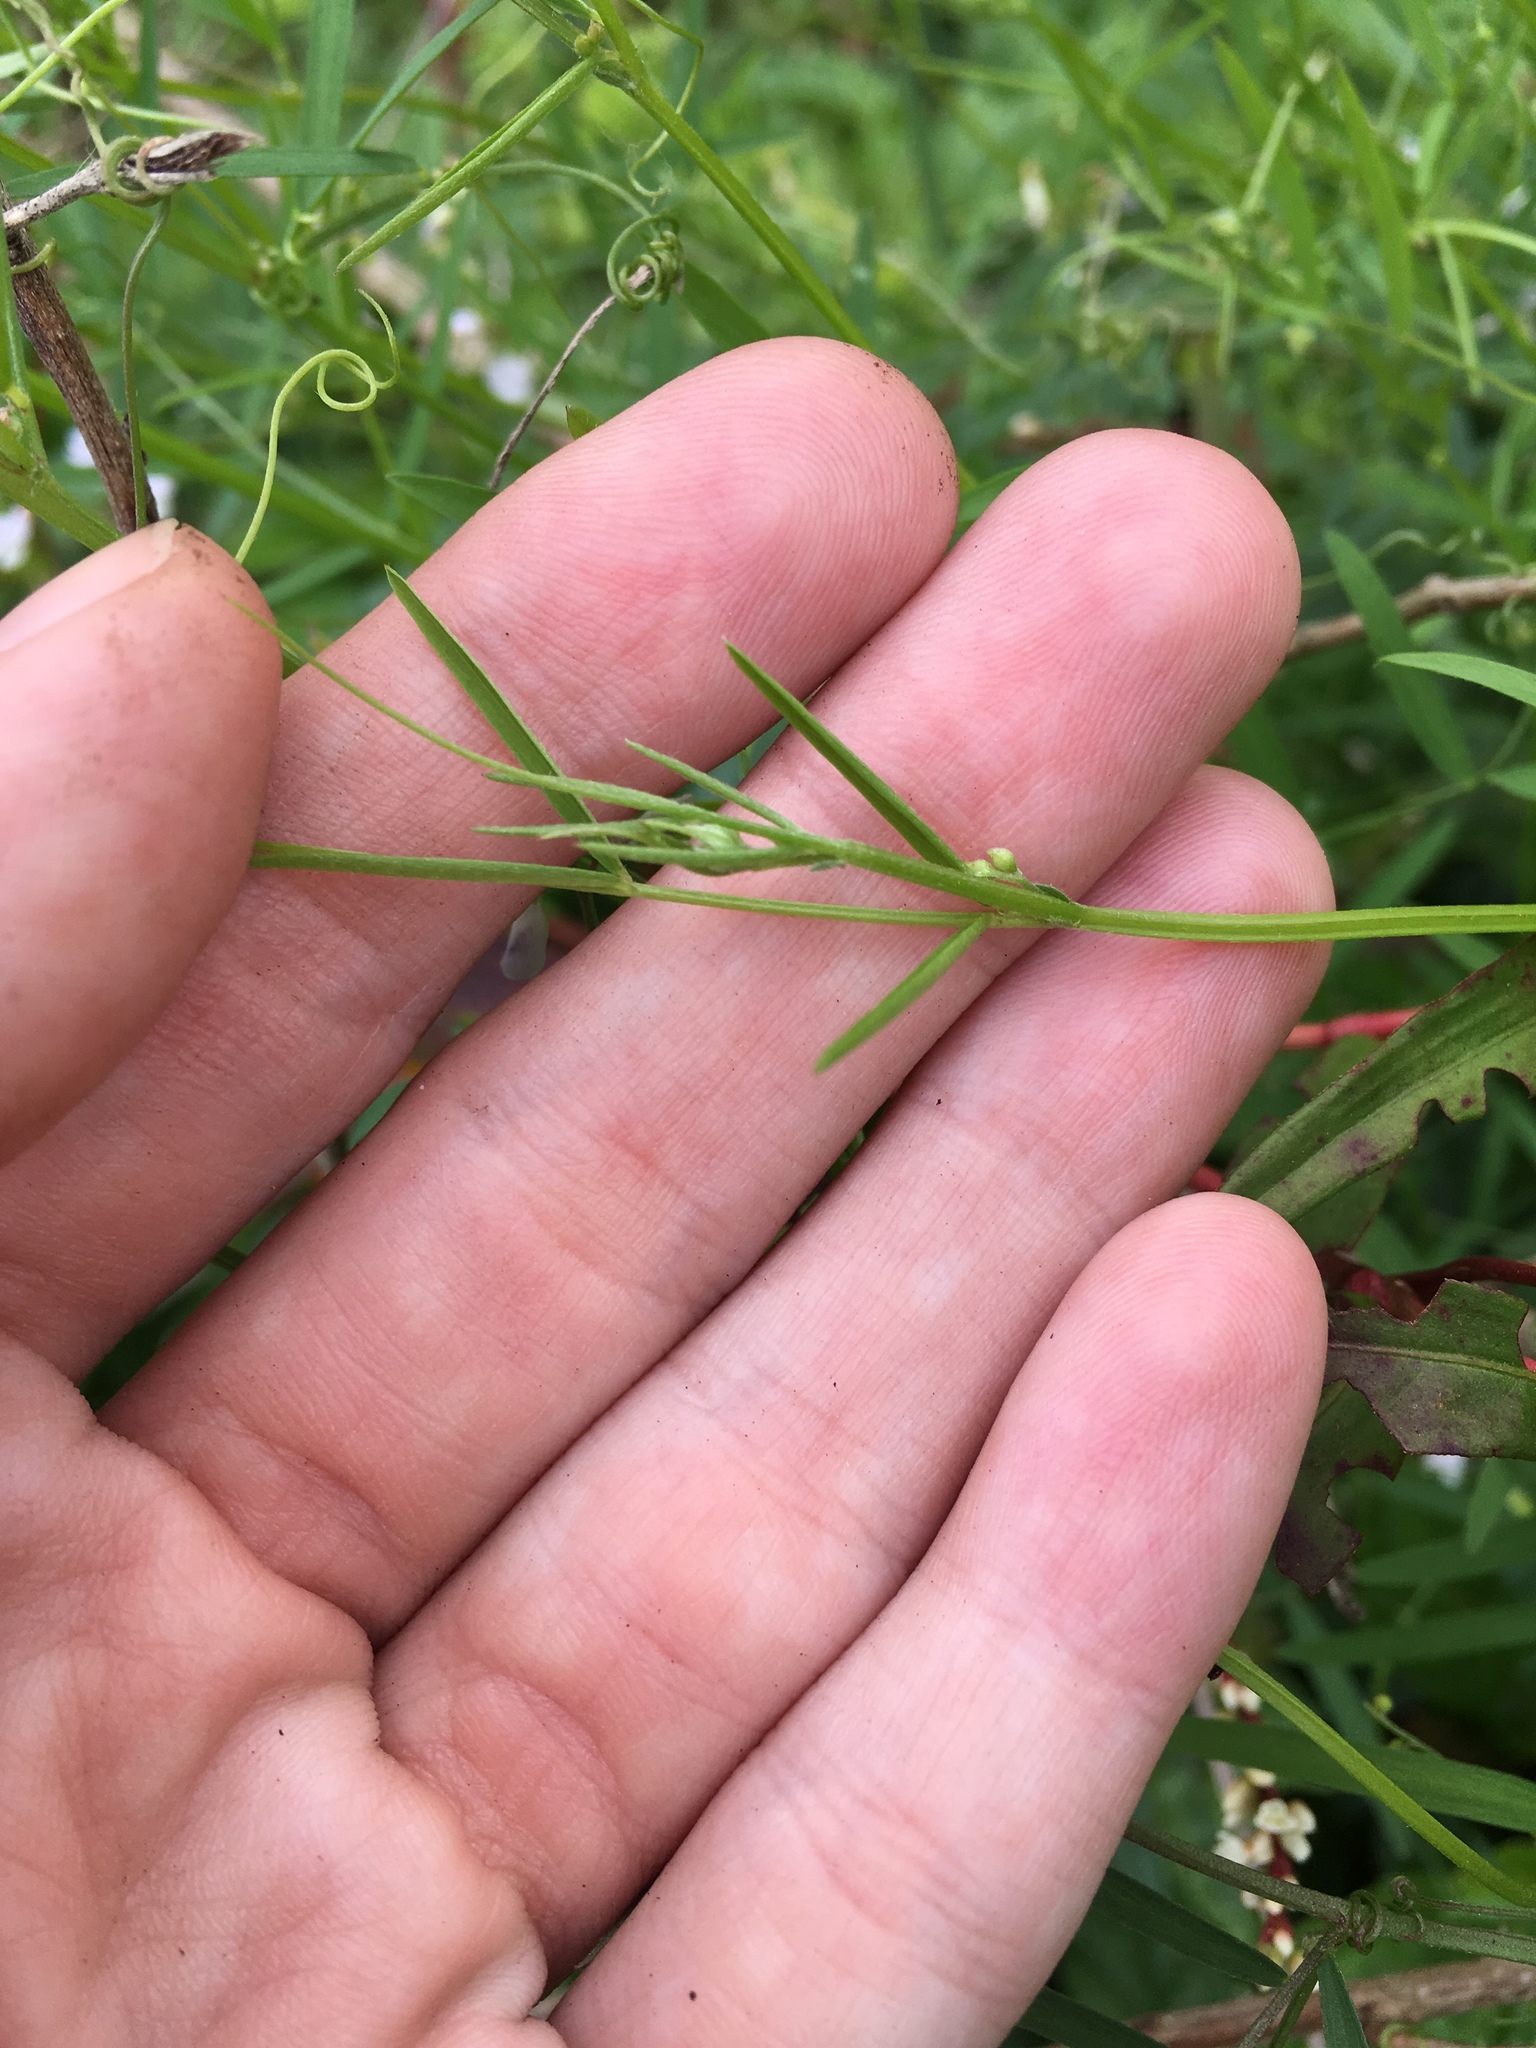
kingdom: Plantae
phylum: Tracheophyta
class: Magnoliopsida
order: Fabales
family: Fabaceae
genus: Vicia
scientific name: Vicia acutifolia
